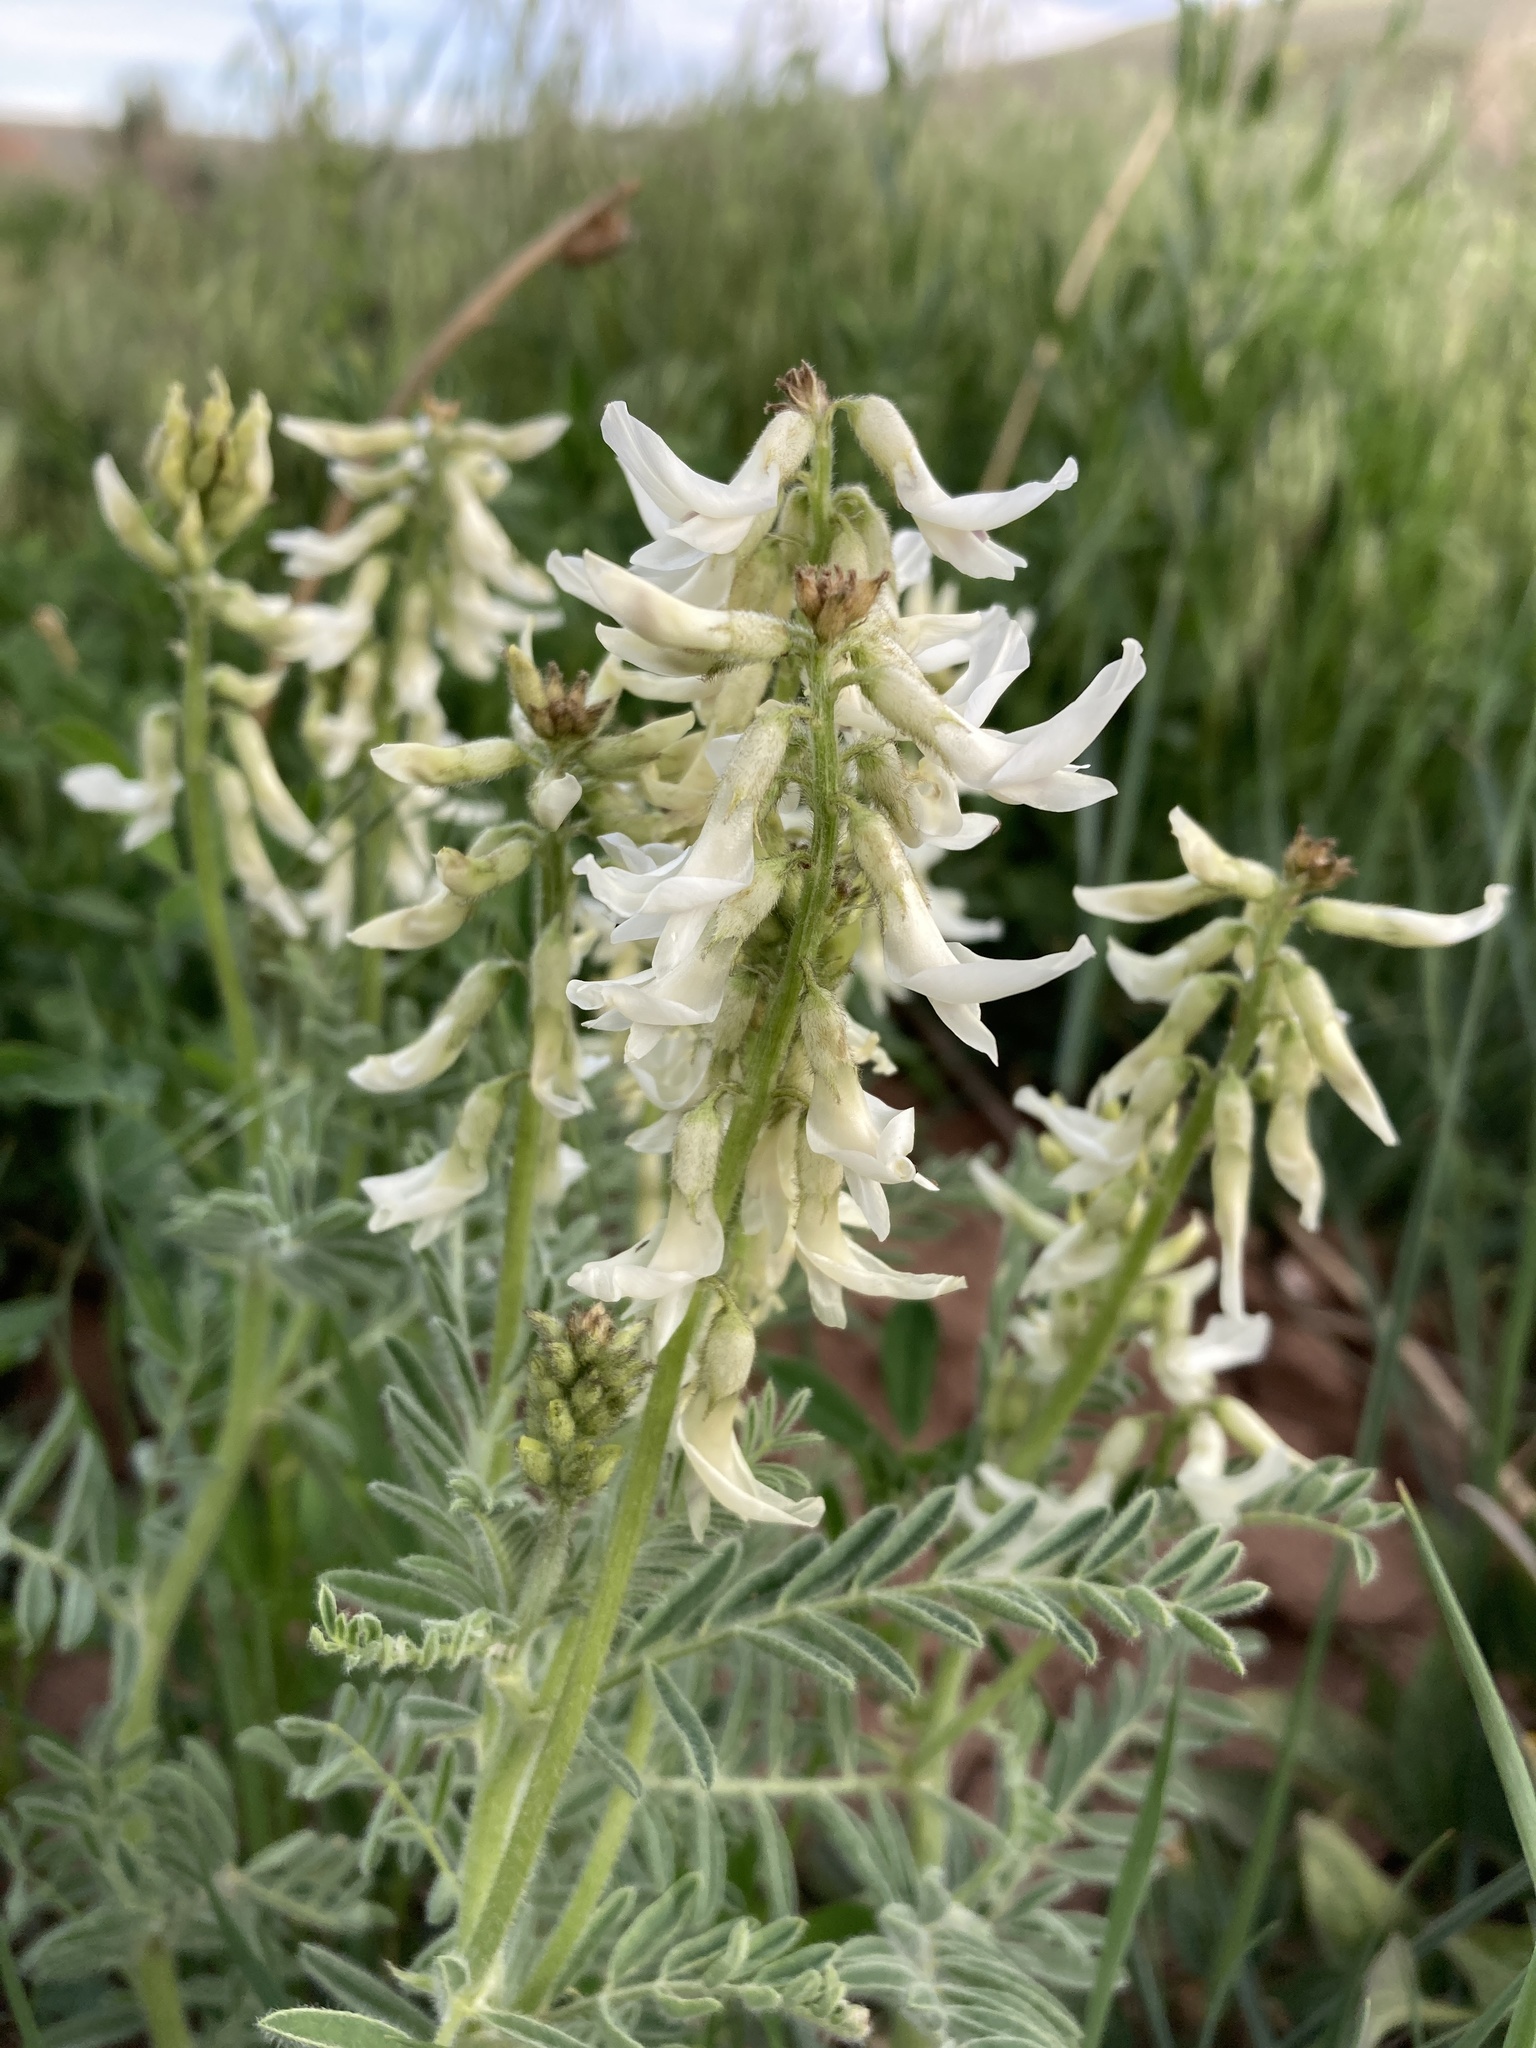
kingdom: Plantae
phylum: Tracheophyta
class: Magnoliopsida
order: Fabales
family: Fabaceae
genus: Astragalus
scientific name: Astragalus drummondii
